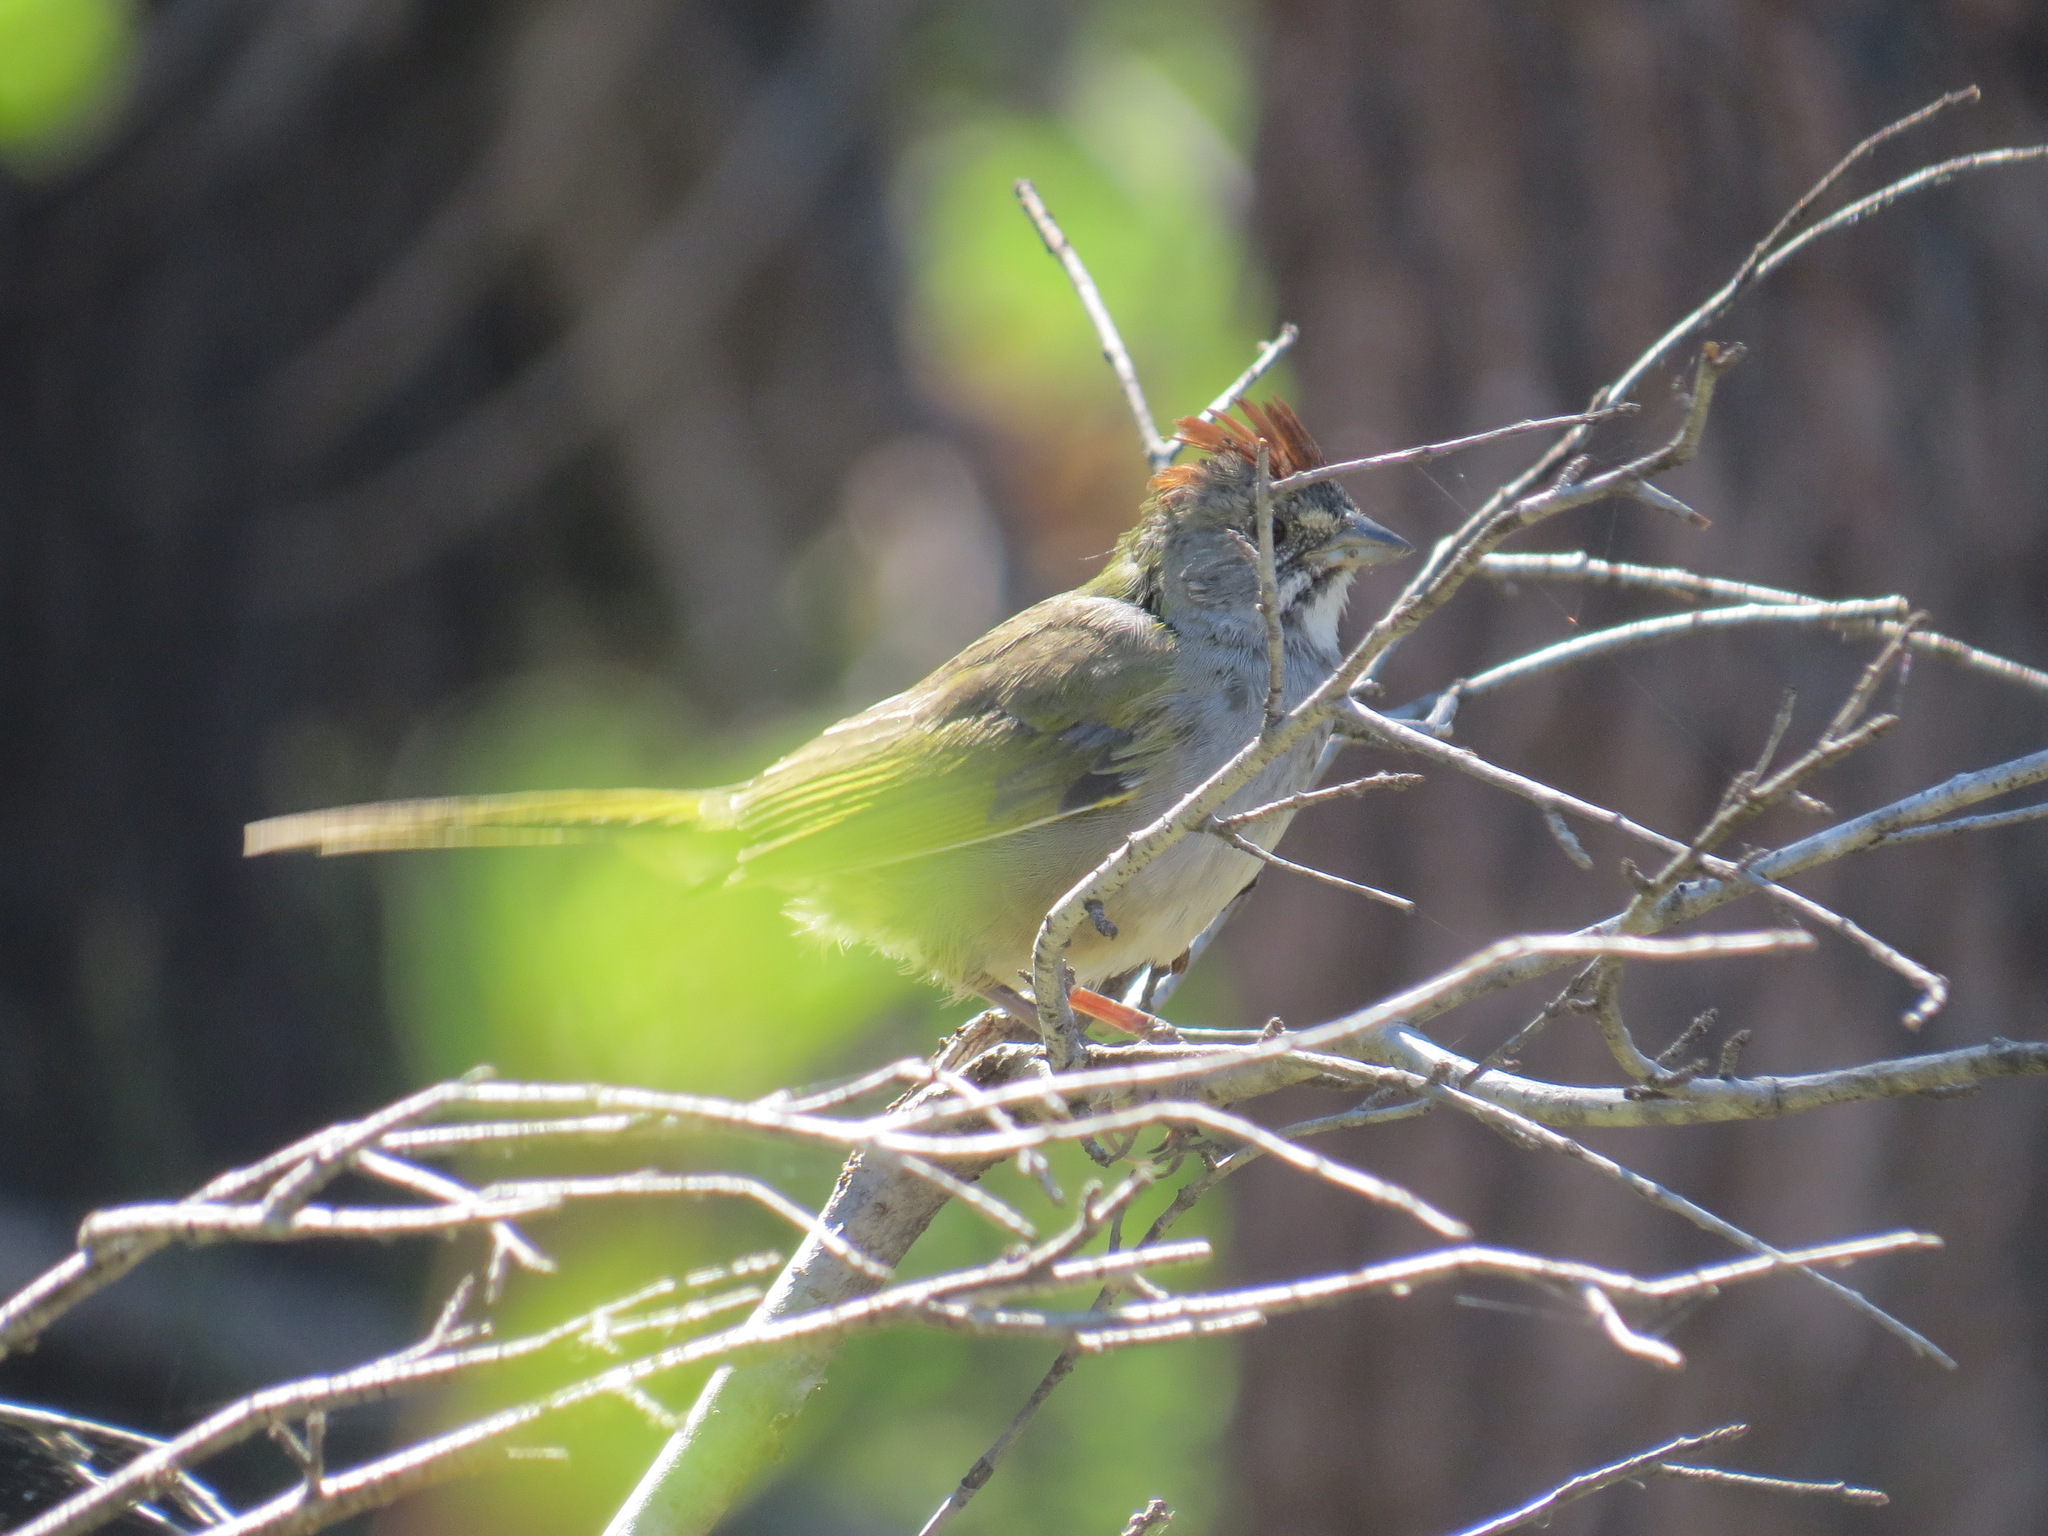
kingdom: Animalia
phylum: Chordata
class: Aves
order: Passeriformes
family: Passerellidae
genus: Pipilo
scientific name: Pipilo chlorurus
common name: Green-tailed towhee
